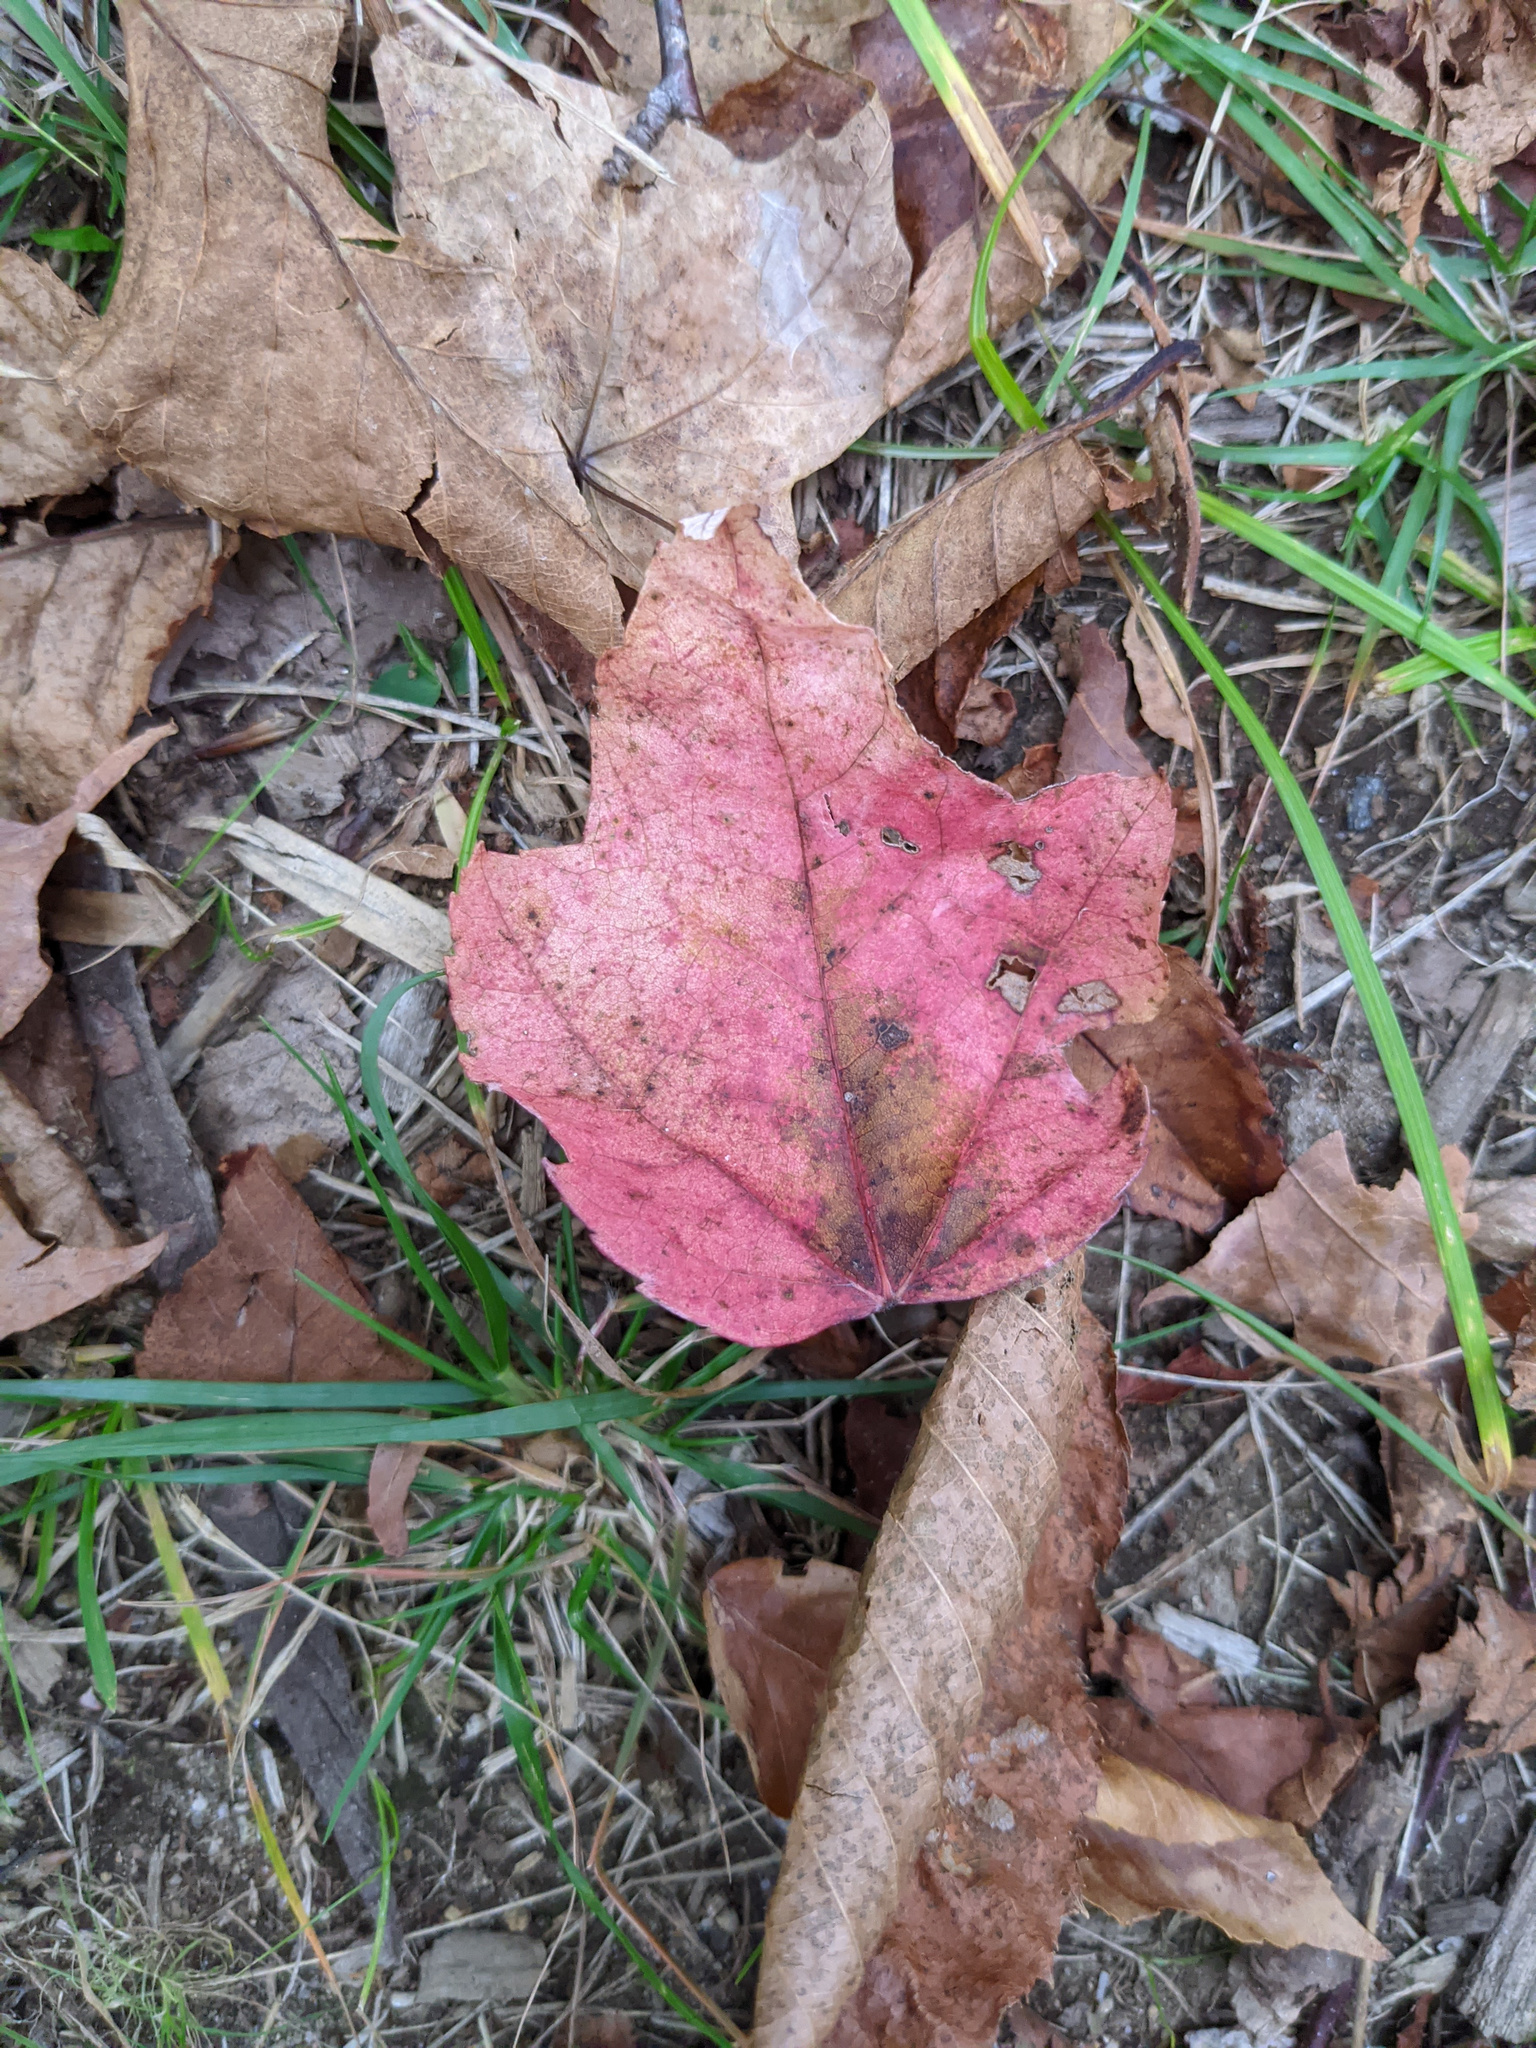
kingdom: Plantae
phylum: Tracheophyta
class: Magnoliopsida
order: Sapindales
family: Sapindaceae
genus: Acer
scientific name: Acer rubrum
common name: Red maple
